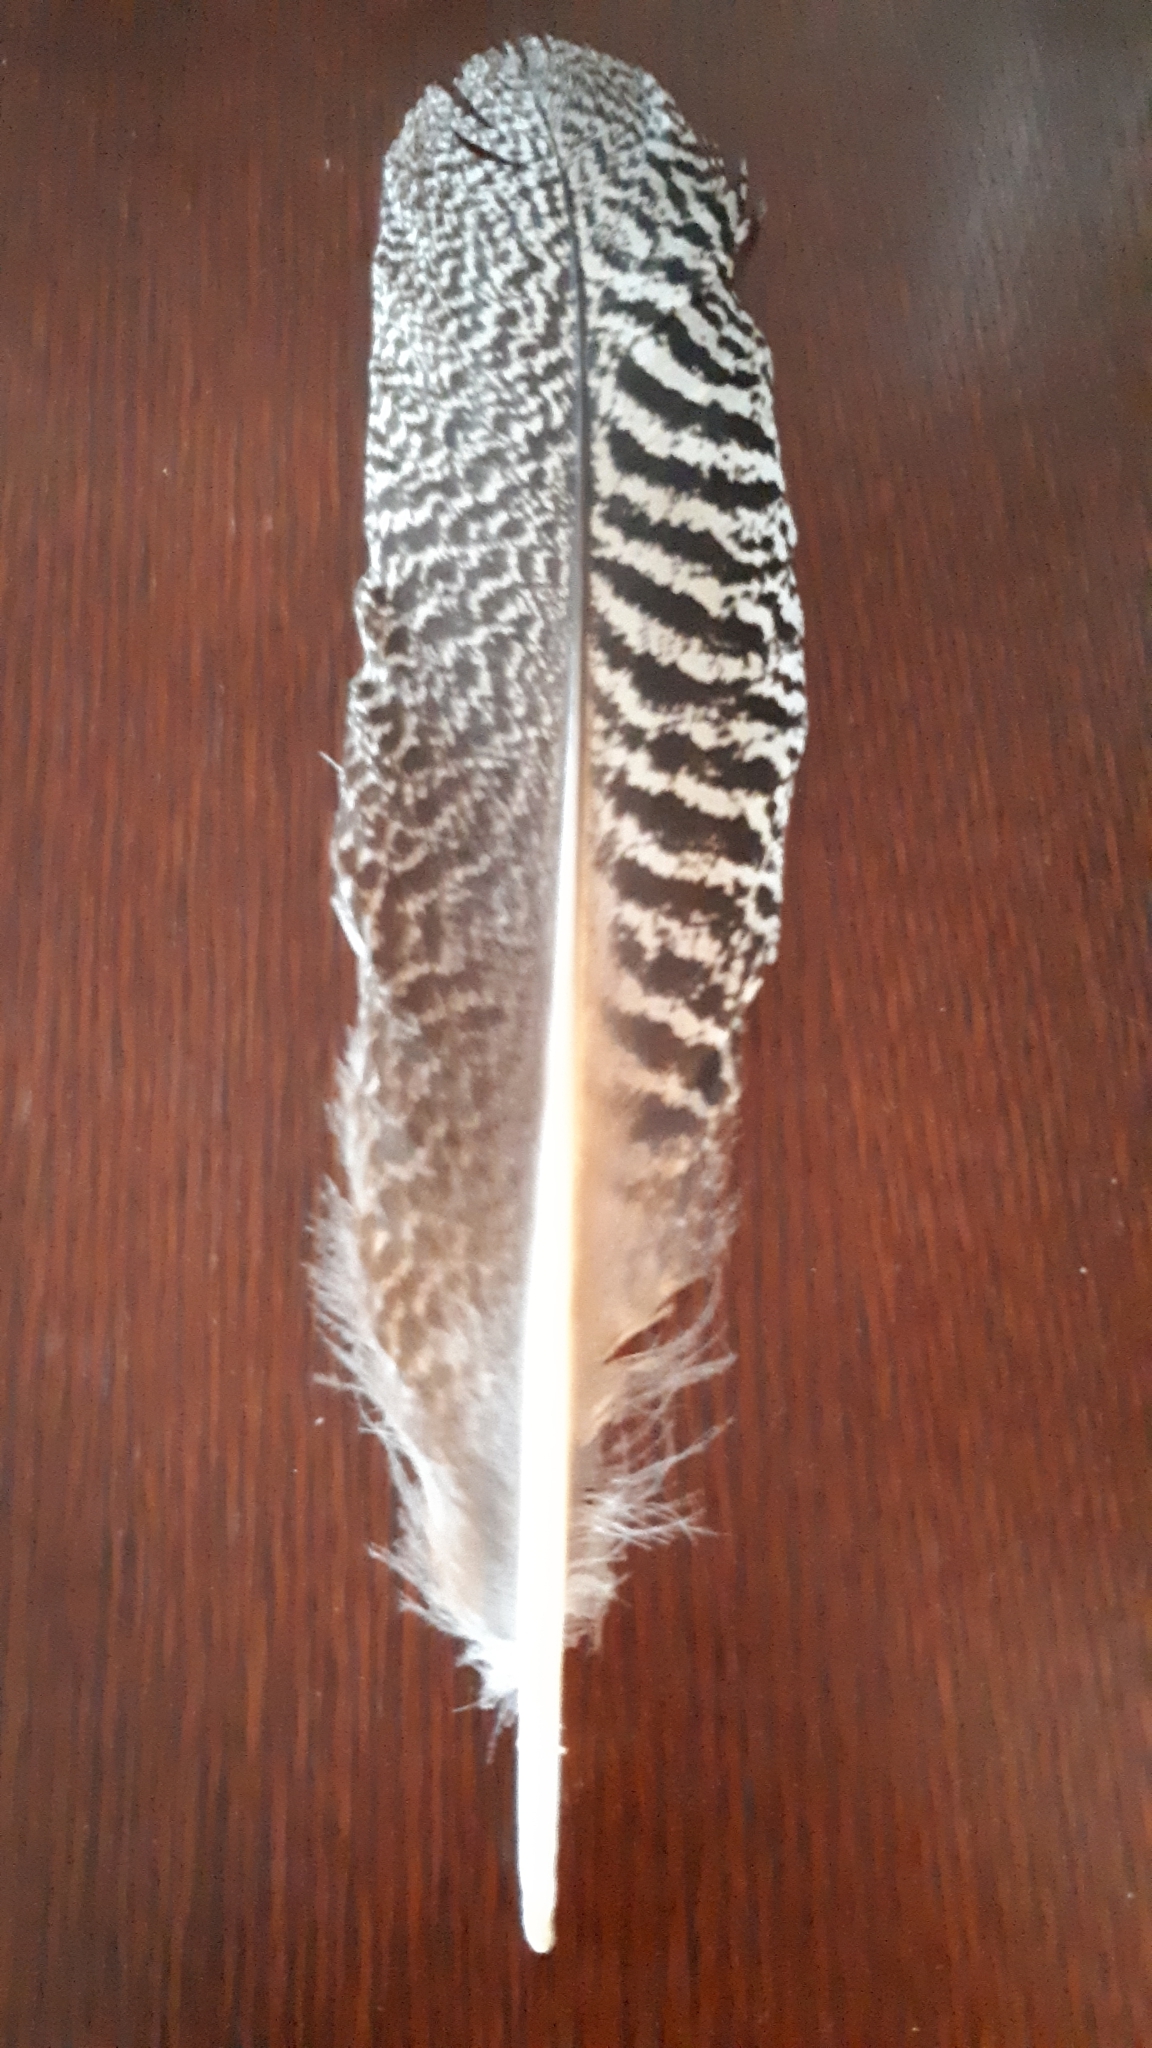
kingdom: Animalia
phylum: Chordata
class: Aves
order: Galliformes
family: Phasianidae
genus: Pavo
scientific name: Pavo cristatus
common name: Indian peafowl
